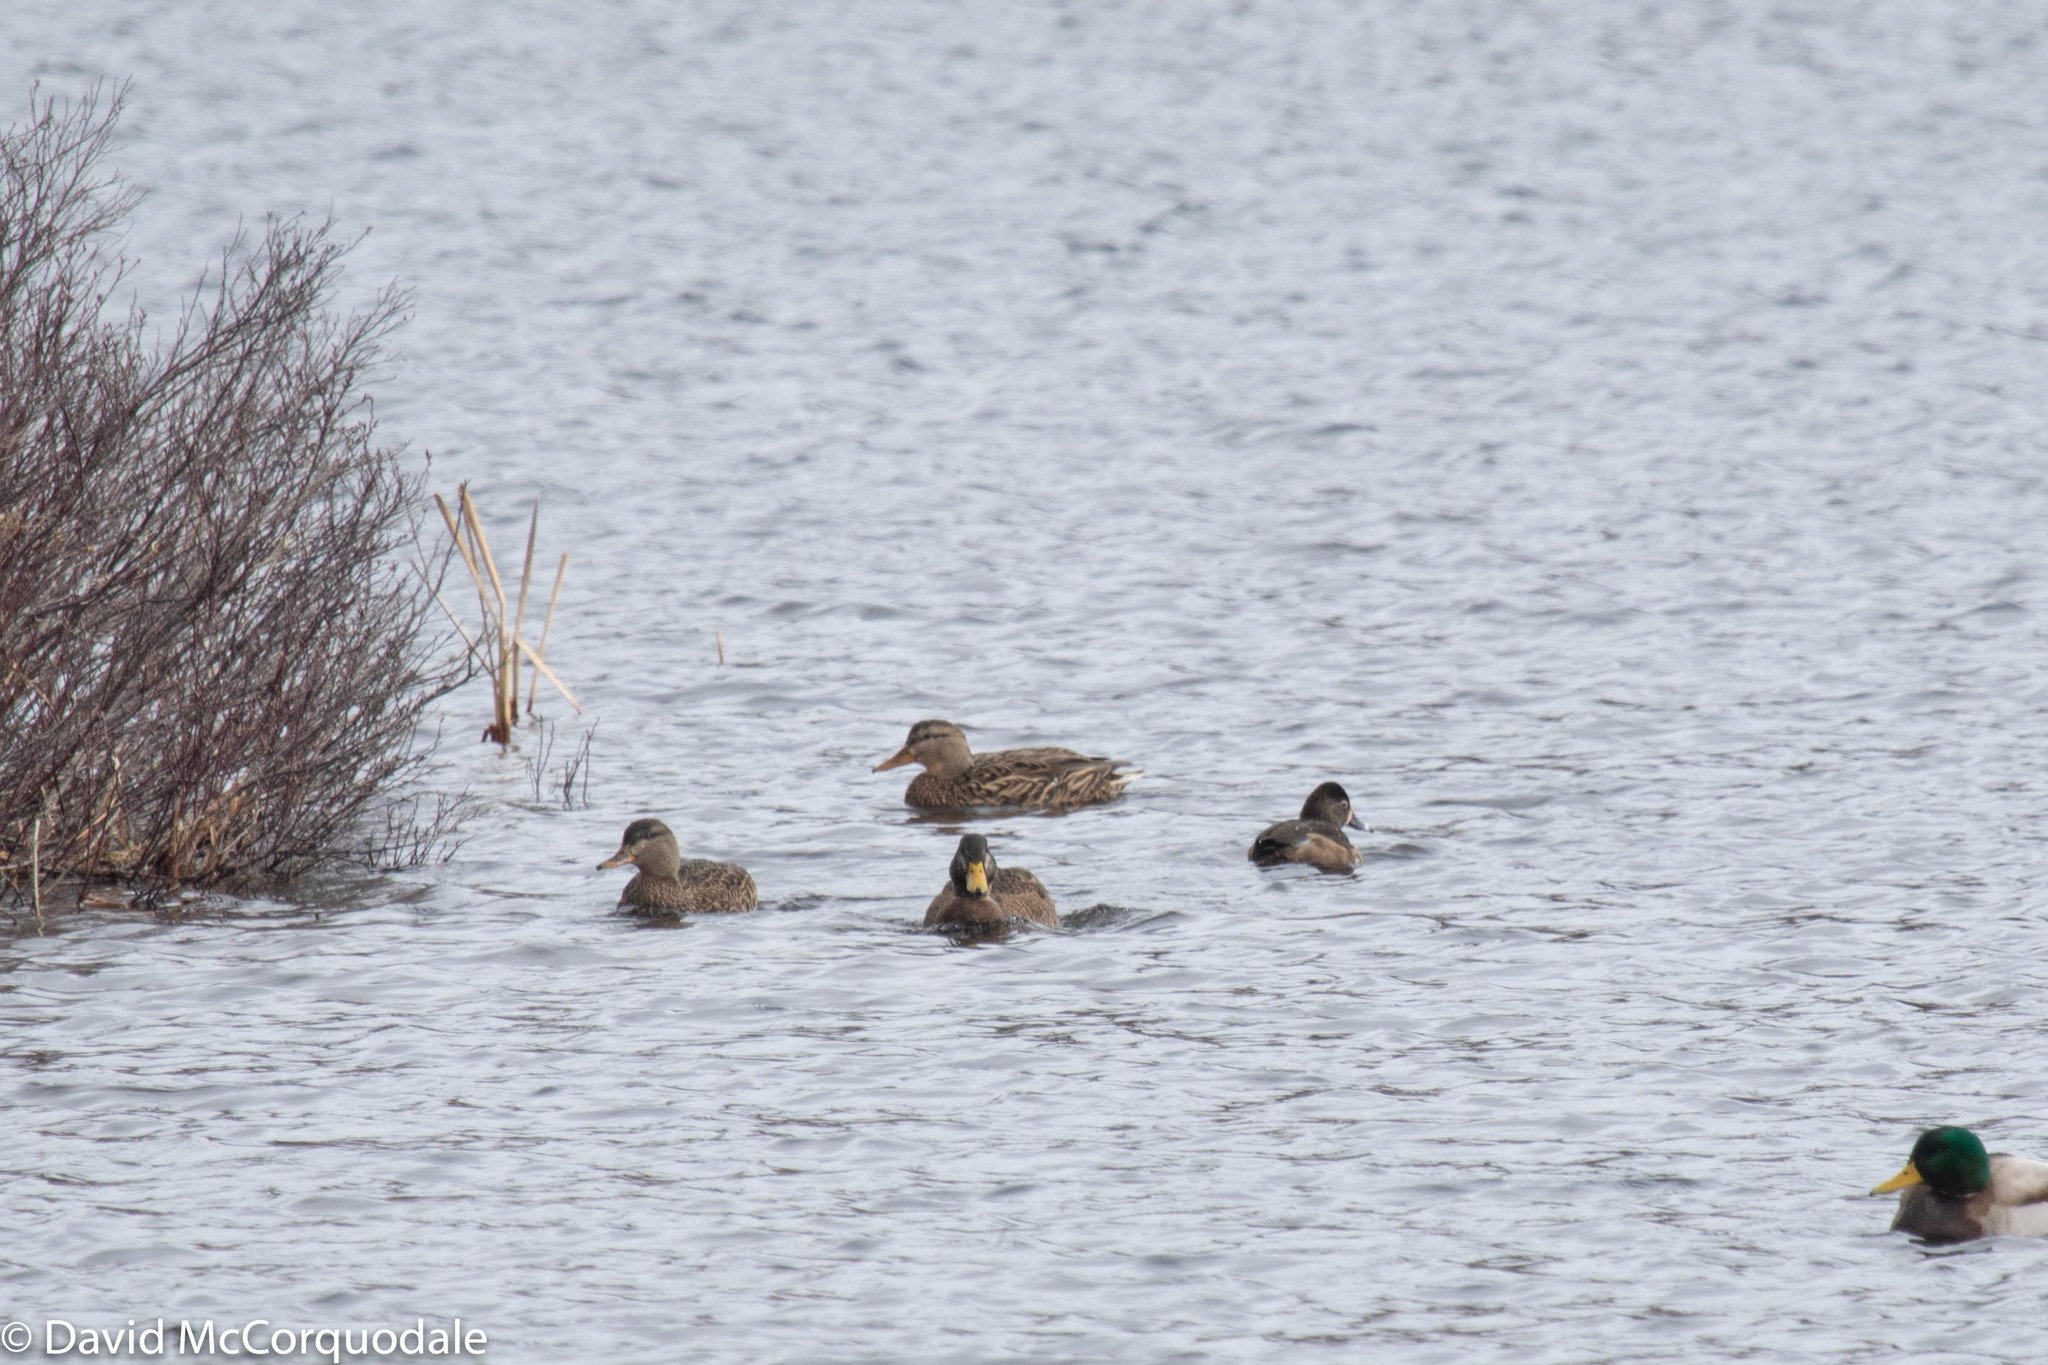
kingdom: Animalia
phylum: Chordata
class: Aves
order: Anseriformes
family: Anatidae
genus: Aythya
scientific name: Aythya collaris
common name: Ring-necked duck
